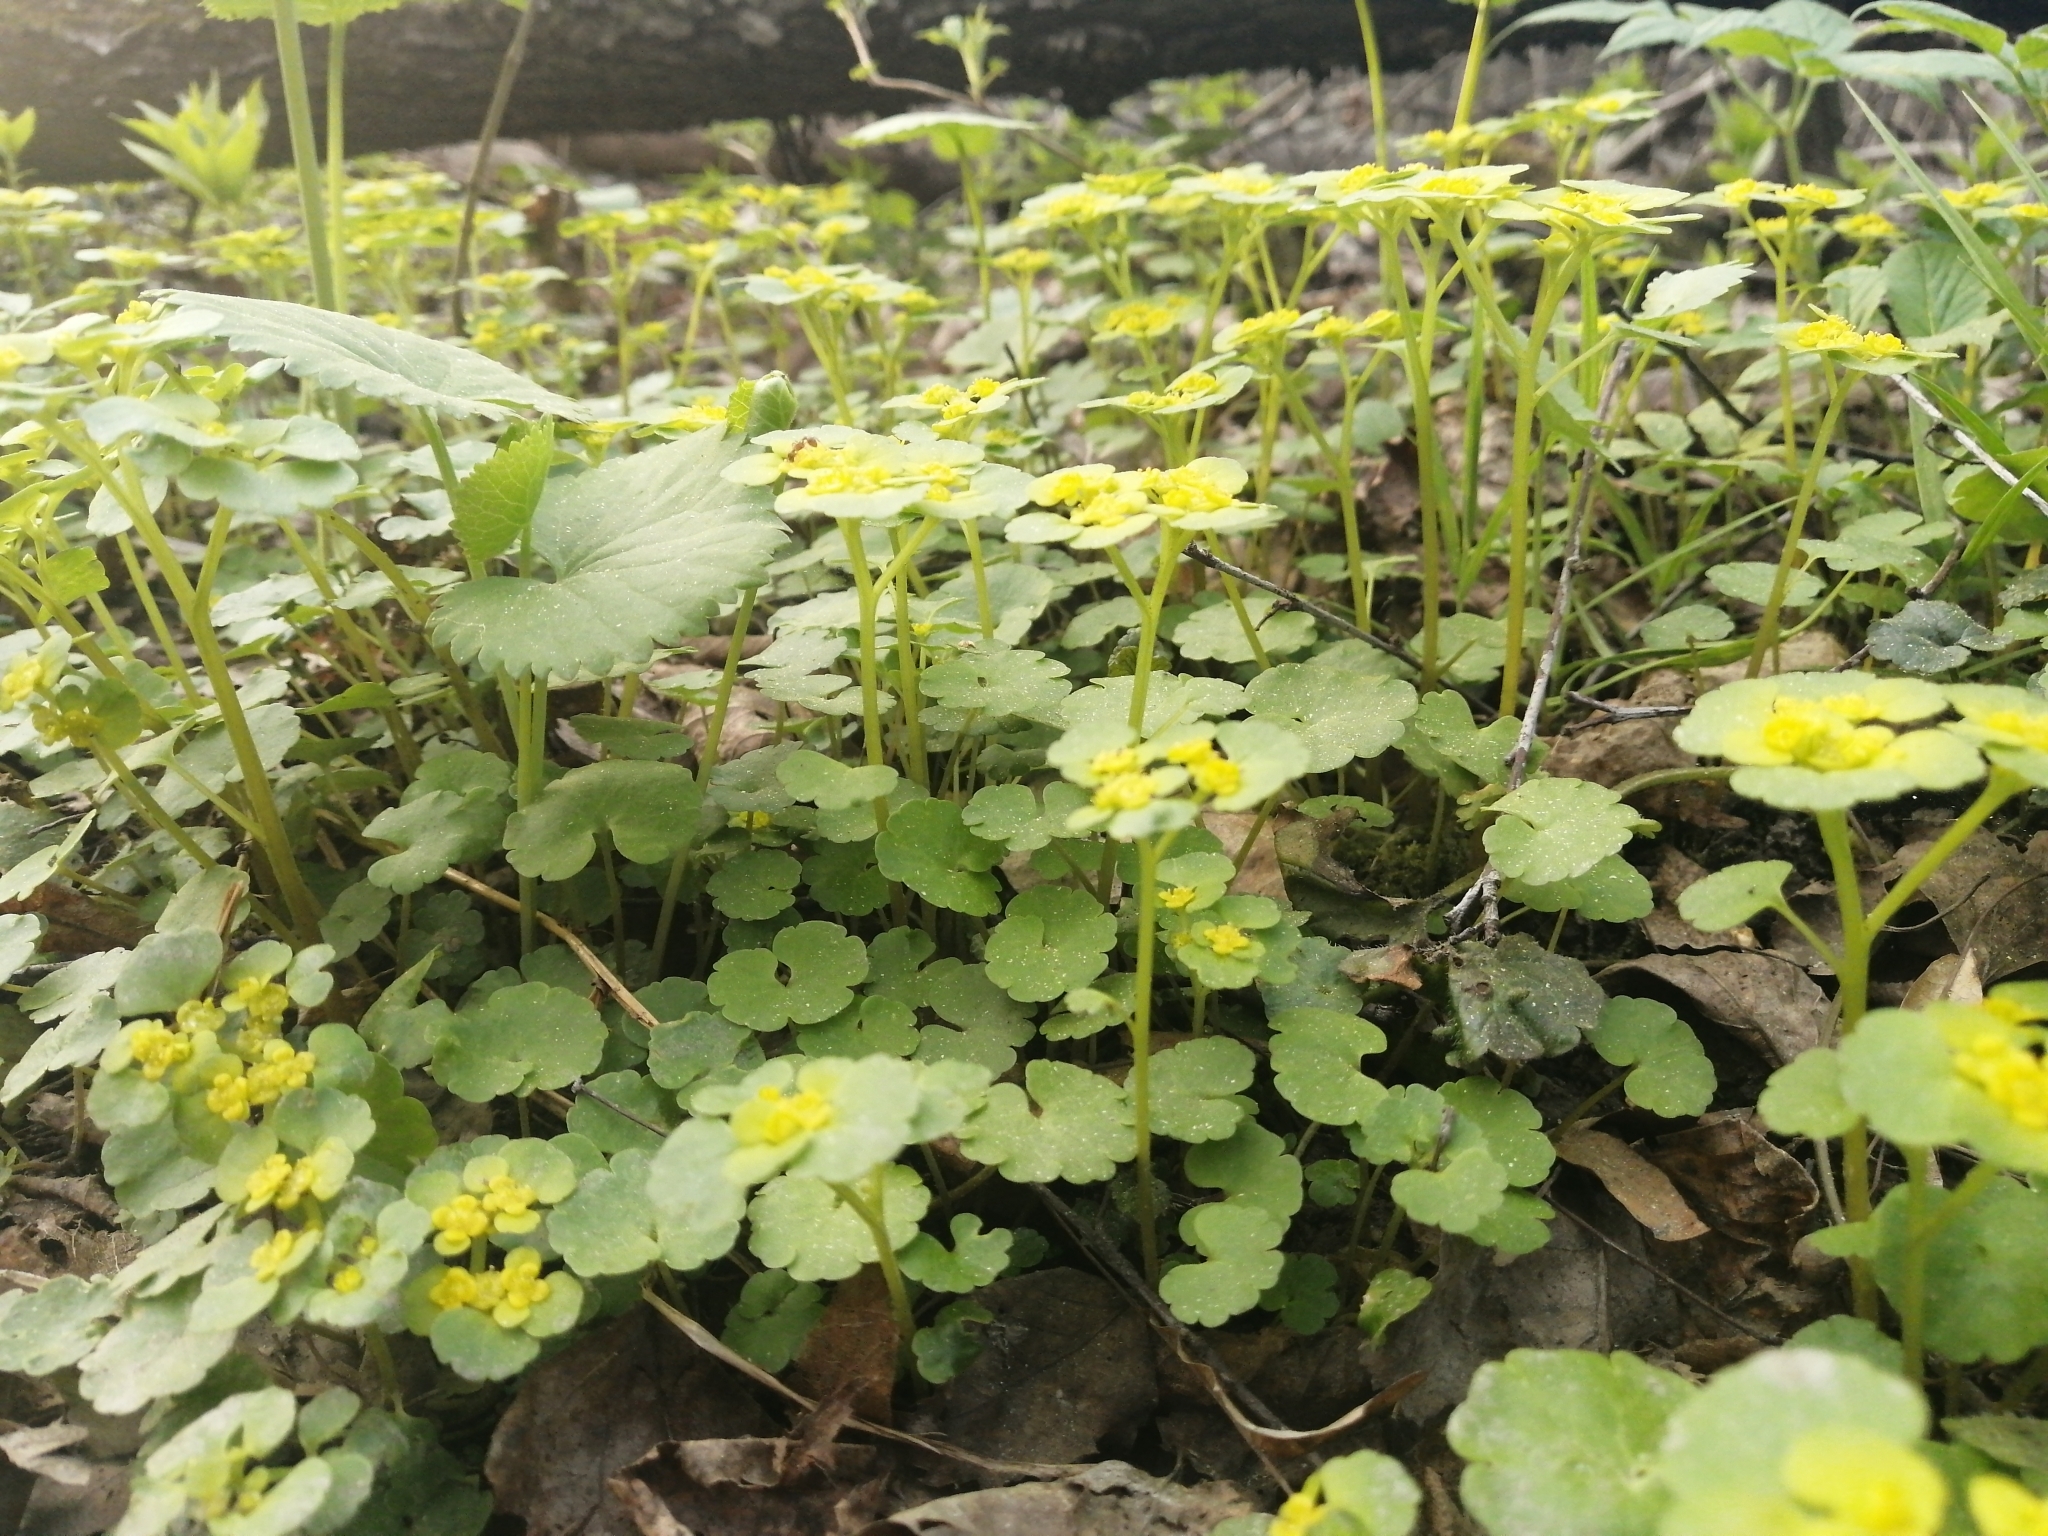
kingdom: Plantae
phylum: Tracheophyta
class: Magnoliopsida
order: Saxifragales
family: Saxifragaceae
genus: Chrysosplenium
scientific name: Chrysosplenium alternifolium
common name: Alternate-leaved golden-saxifrage
